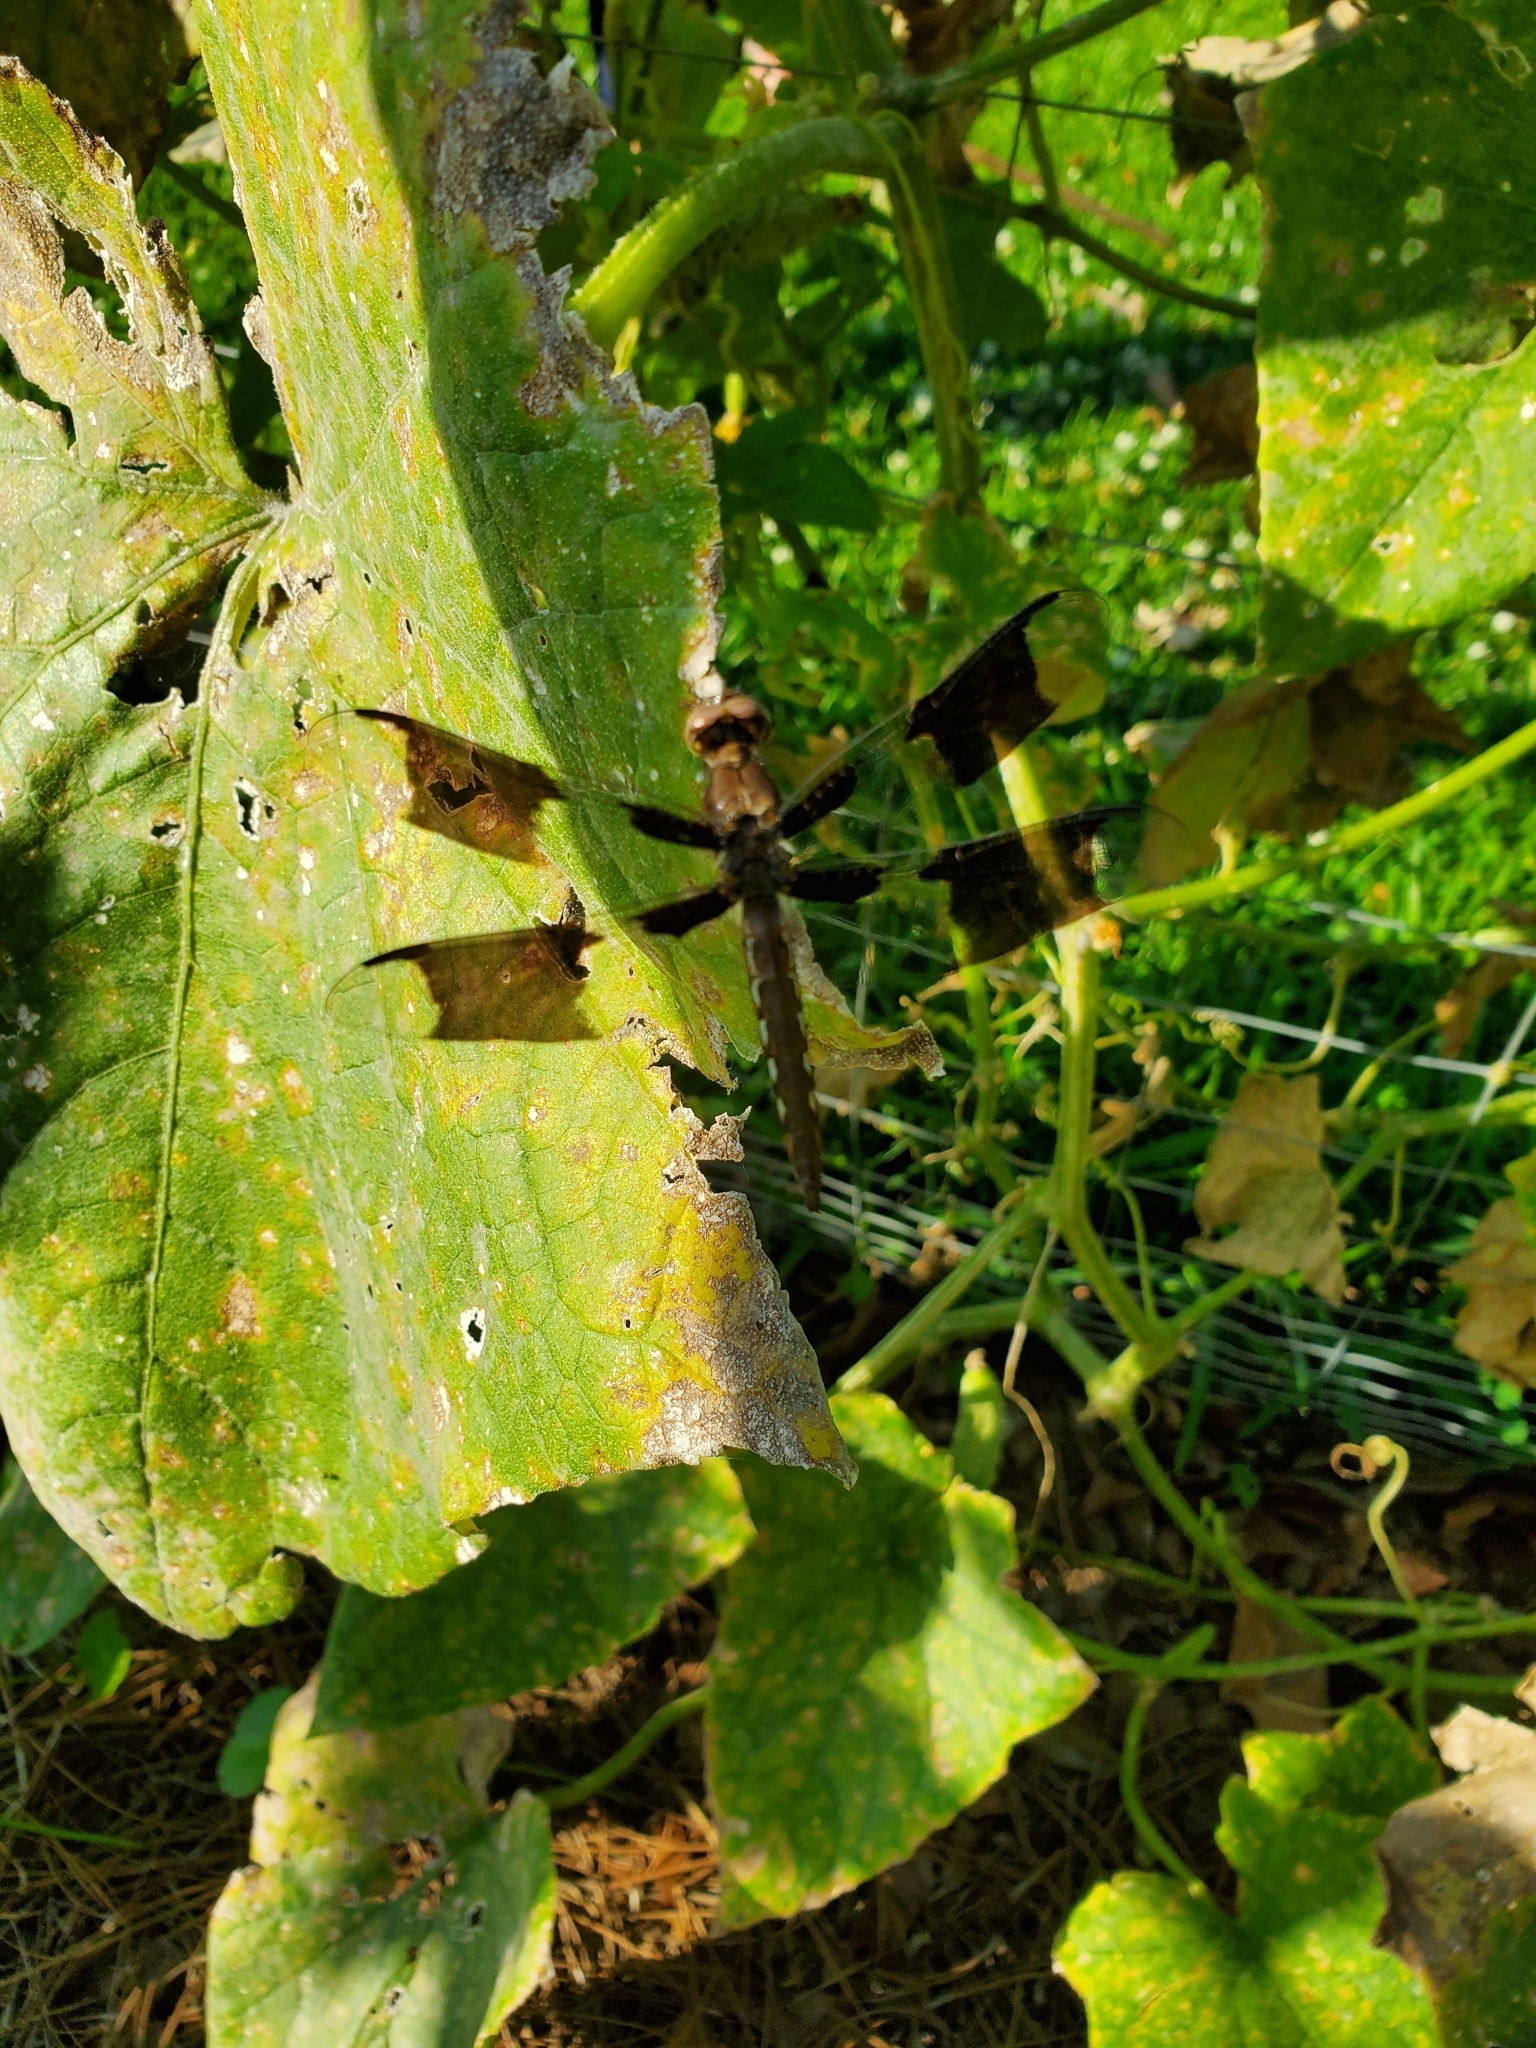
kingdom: Animalia
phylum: Arthropoda
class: Insecta
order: Odonata
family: Libellulidae
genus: Plathemis
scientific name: Plathemis lydia
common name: Common whitetail
